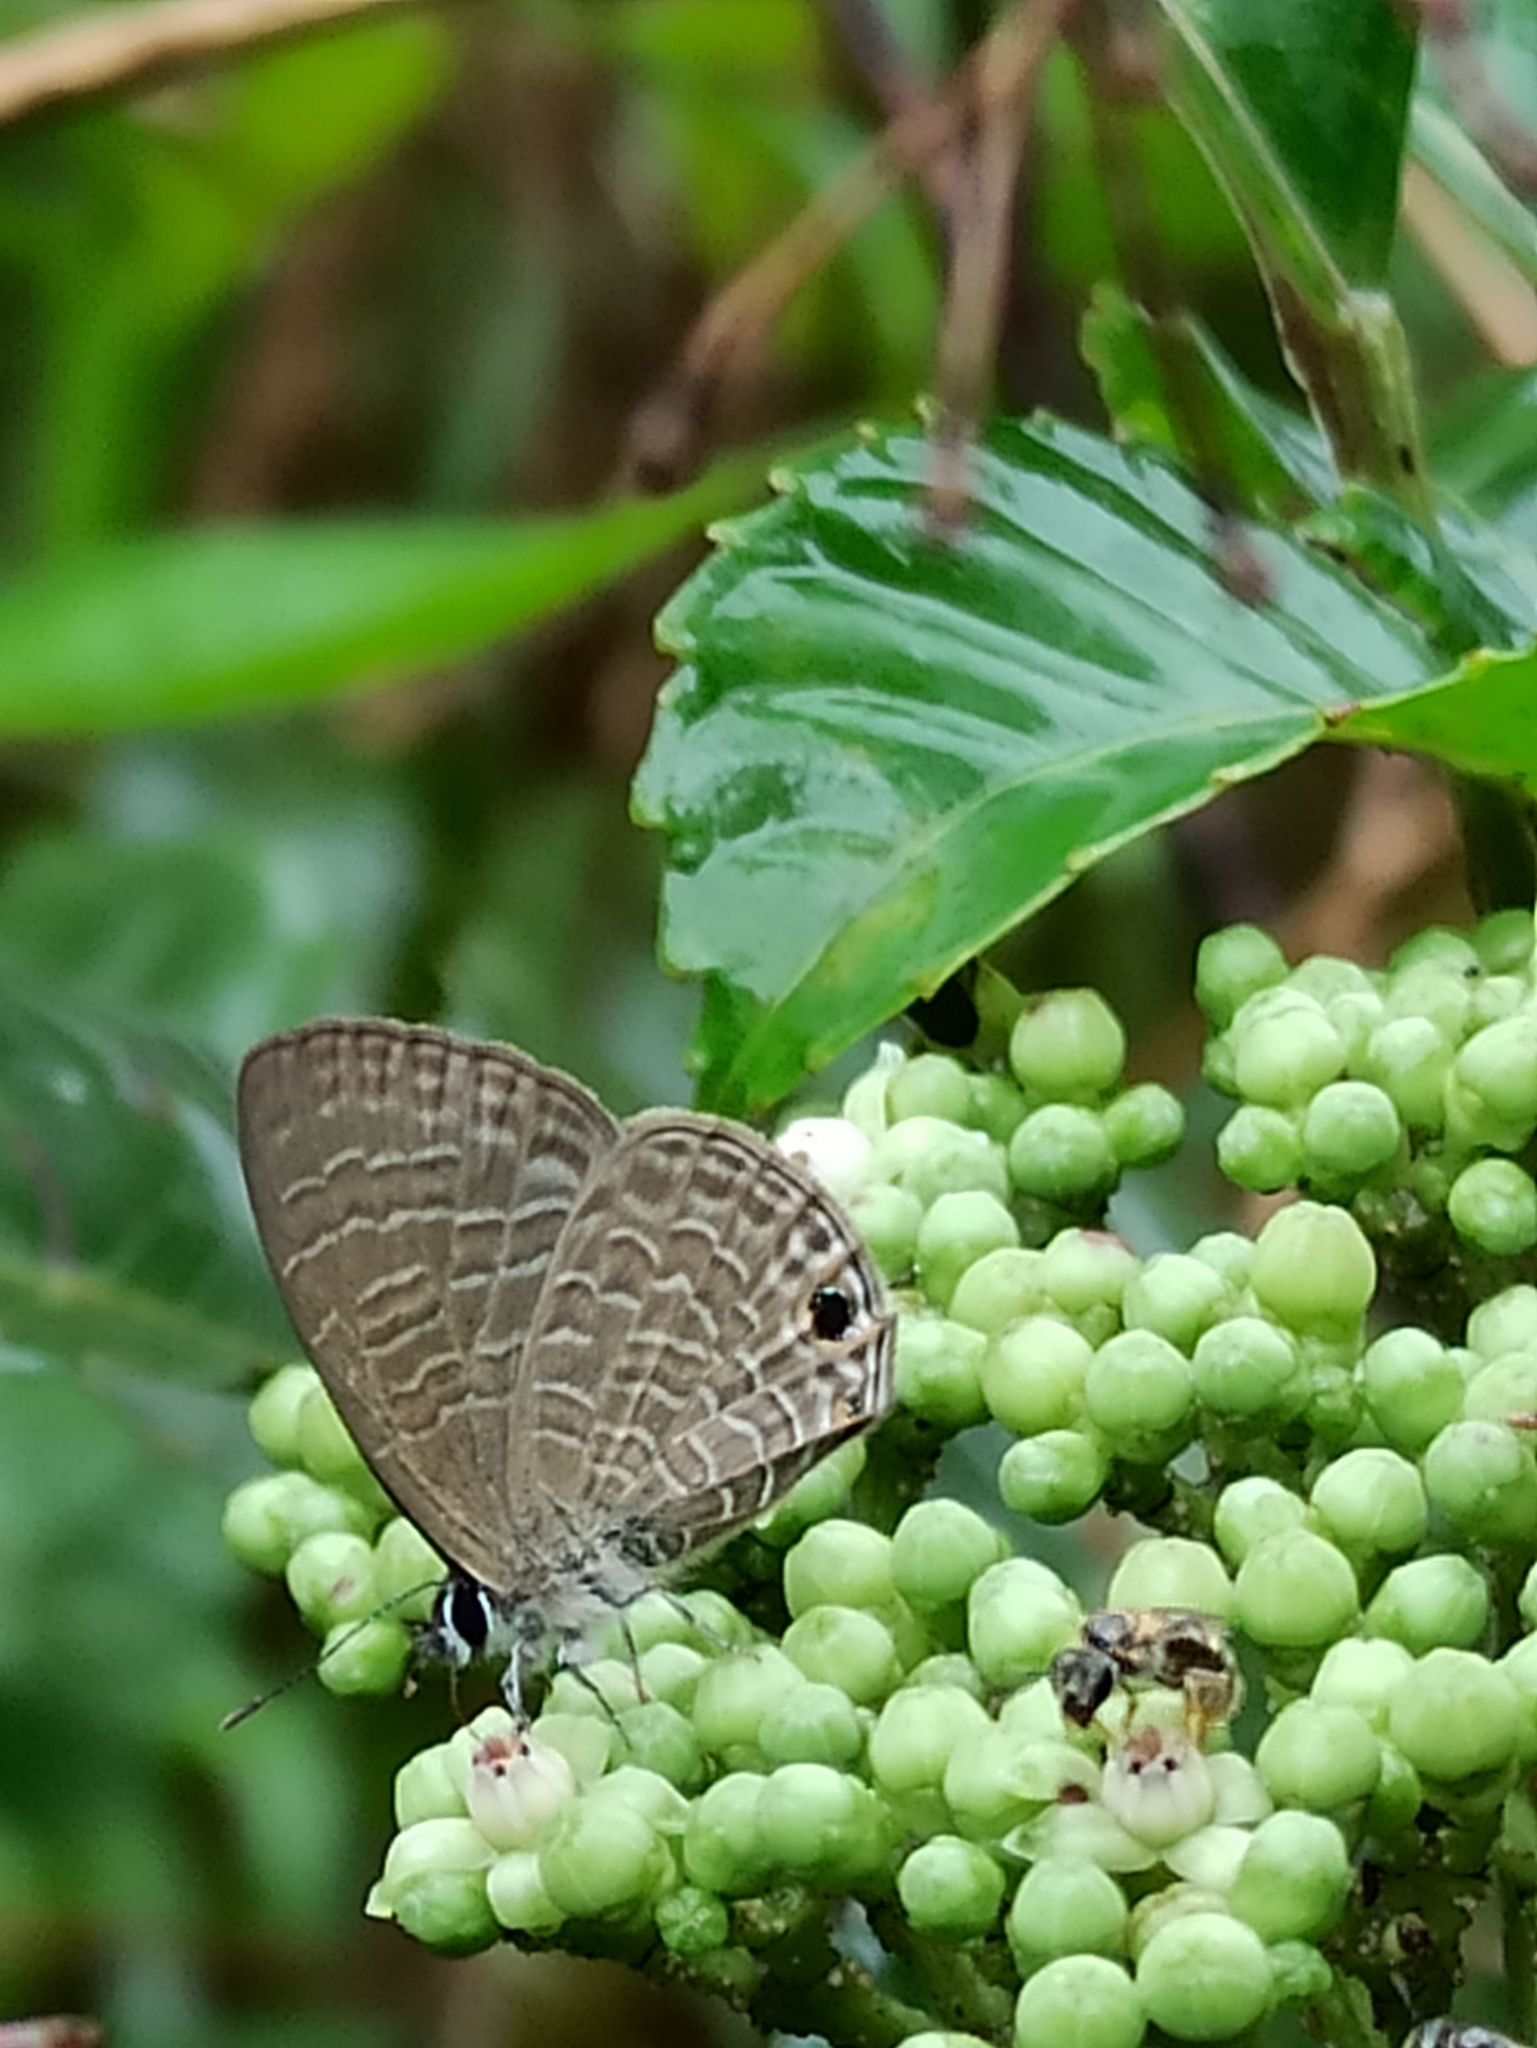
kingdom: Animalia
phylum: Arthropoda
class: Insecta
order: Lepidoptera
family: Lycaenidae
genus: Nacaduba
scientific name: Nacaduba berenice
